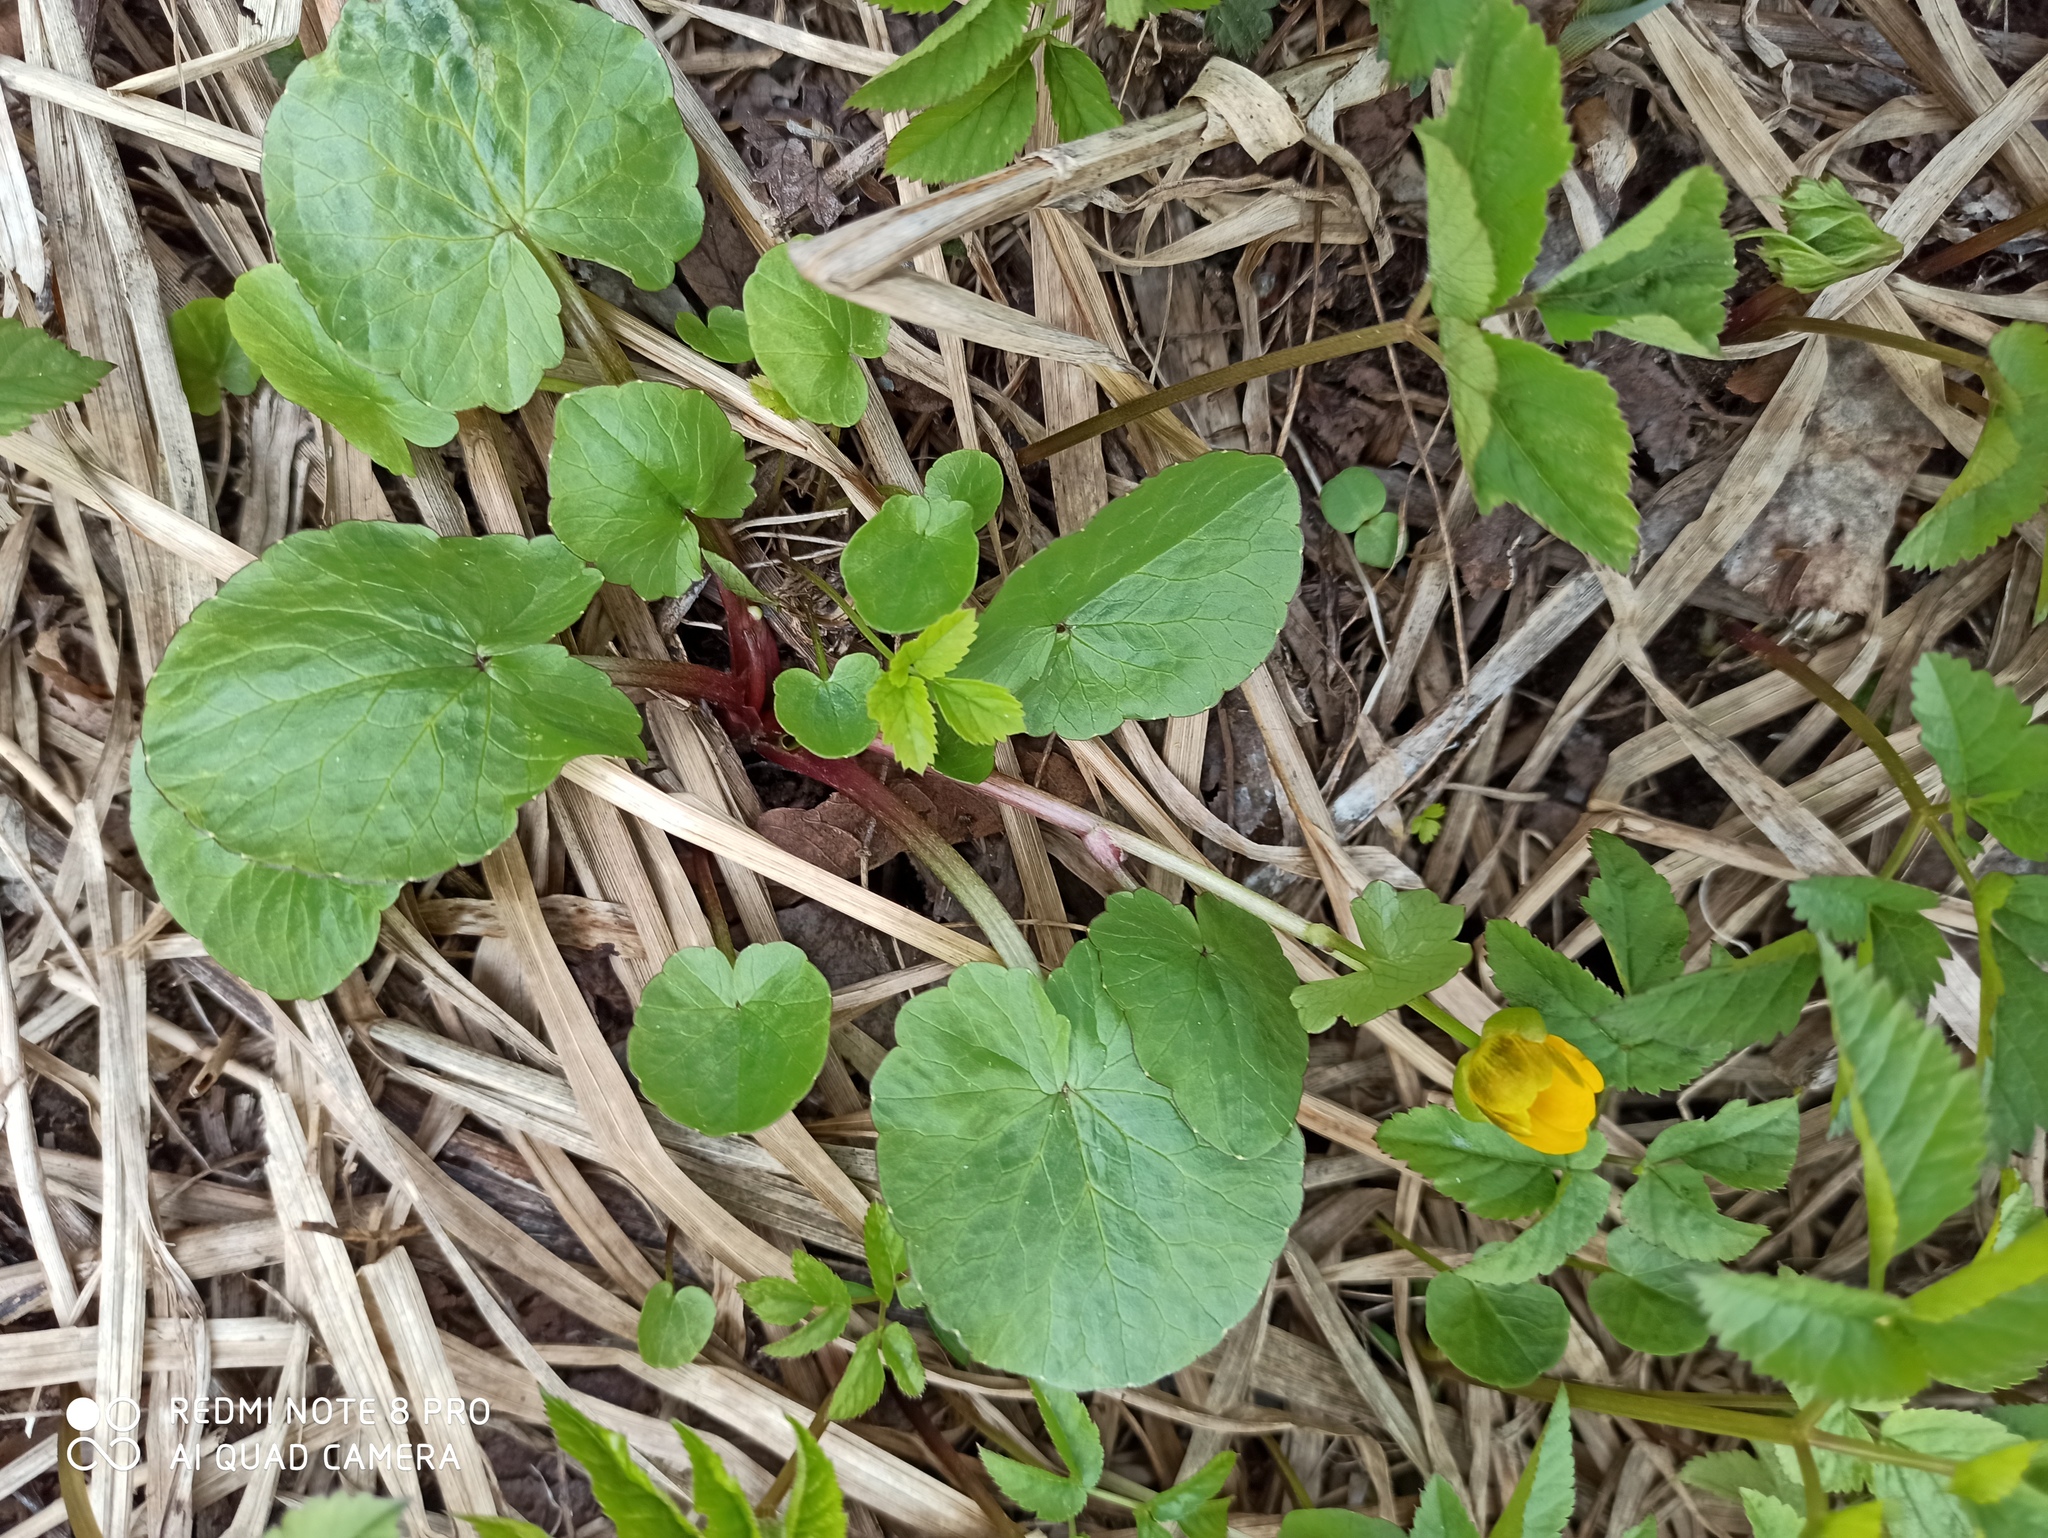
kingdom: Plantae
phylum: Tracheophyta
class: Magnoliopsida
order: Ranunculales
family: Ranunculaceae
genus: Ficaria
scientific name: Ficaria verna
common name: Lesser celandine
